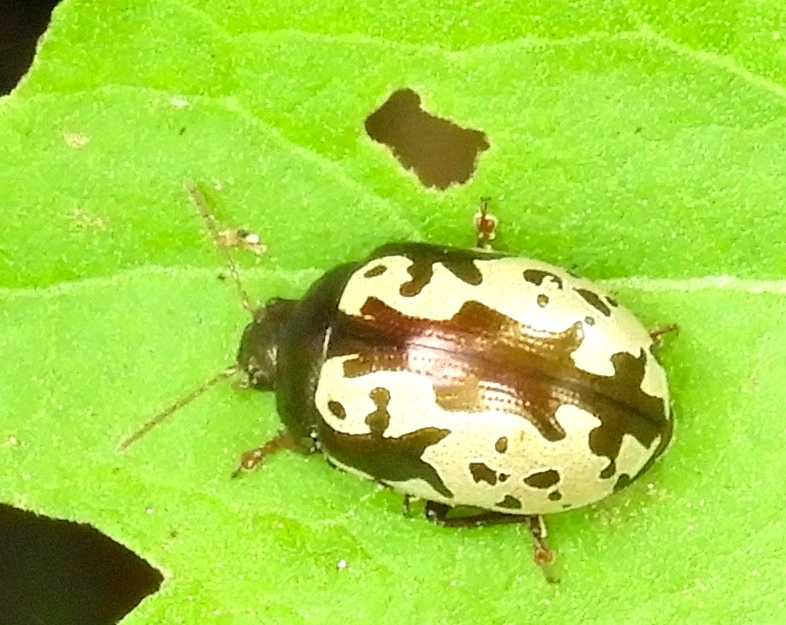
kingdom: Animalia
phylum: Arthropoda
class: Insecta
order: Coleoptera
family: Chrysomelidae
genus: Calligrapha
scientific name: Calligrapha intermedia
